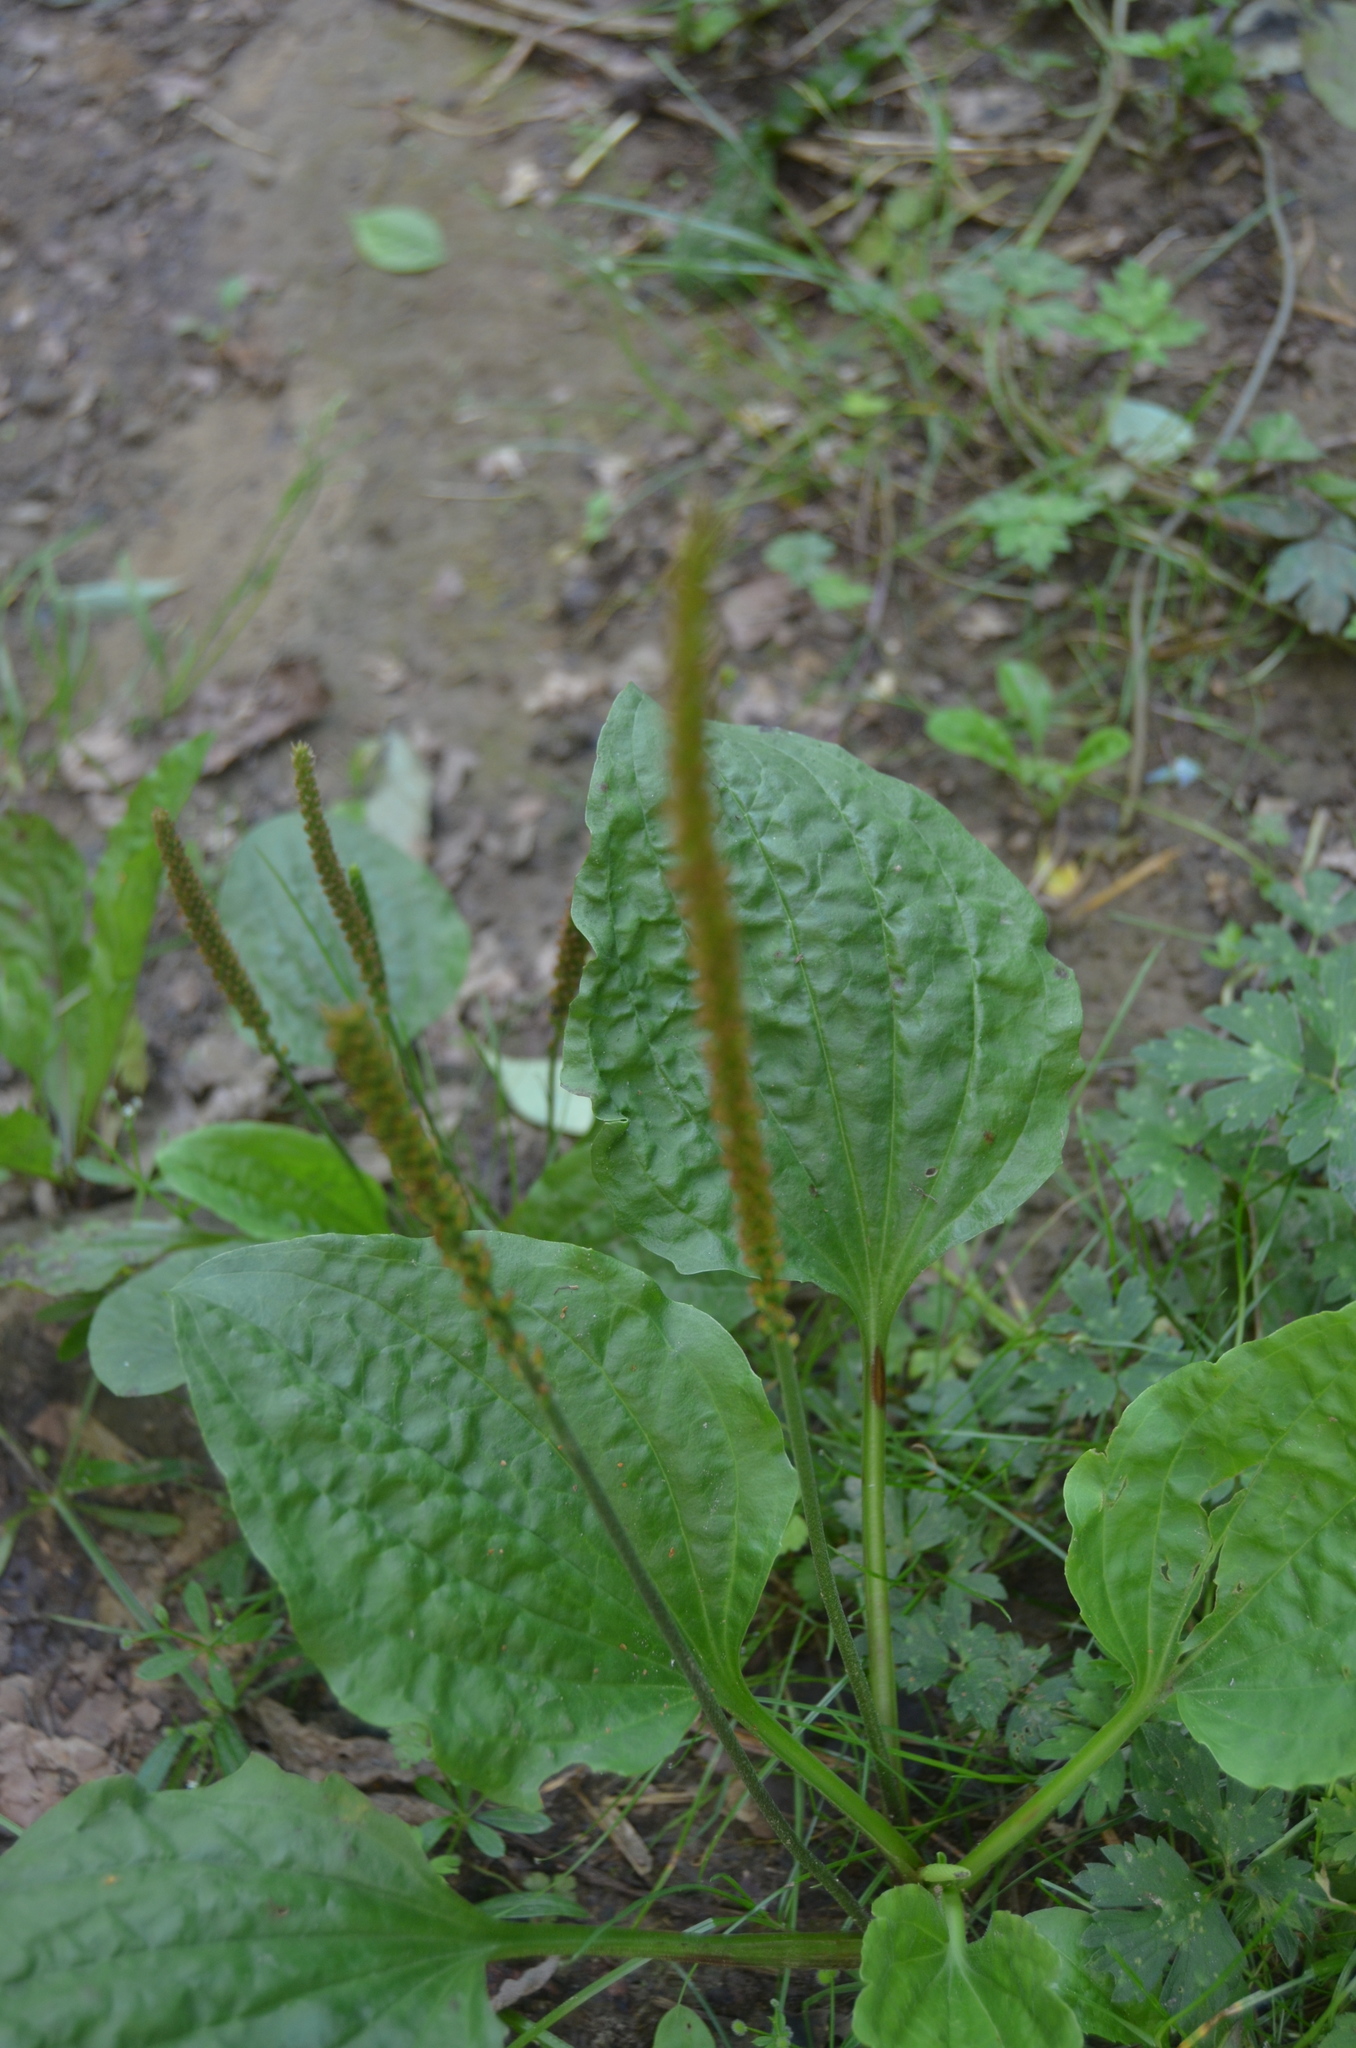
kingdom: Plantae
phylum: Tracheophyta
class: Magnoliopsida
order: Lamiales
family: Plantaginaceae
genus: Plantago
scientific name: Plantago major
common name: Common plantain
